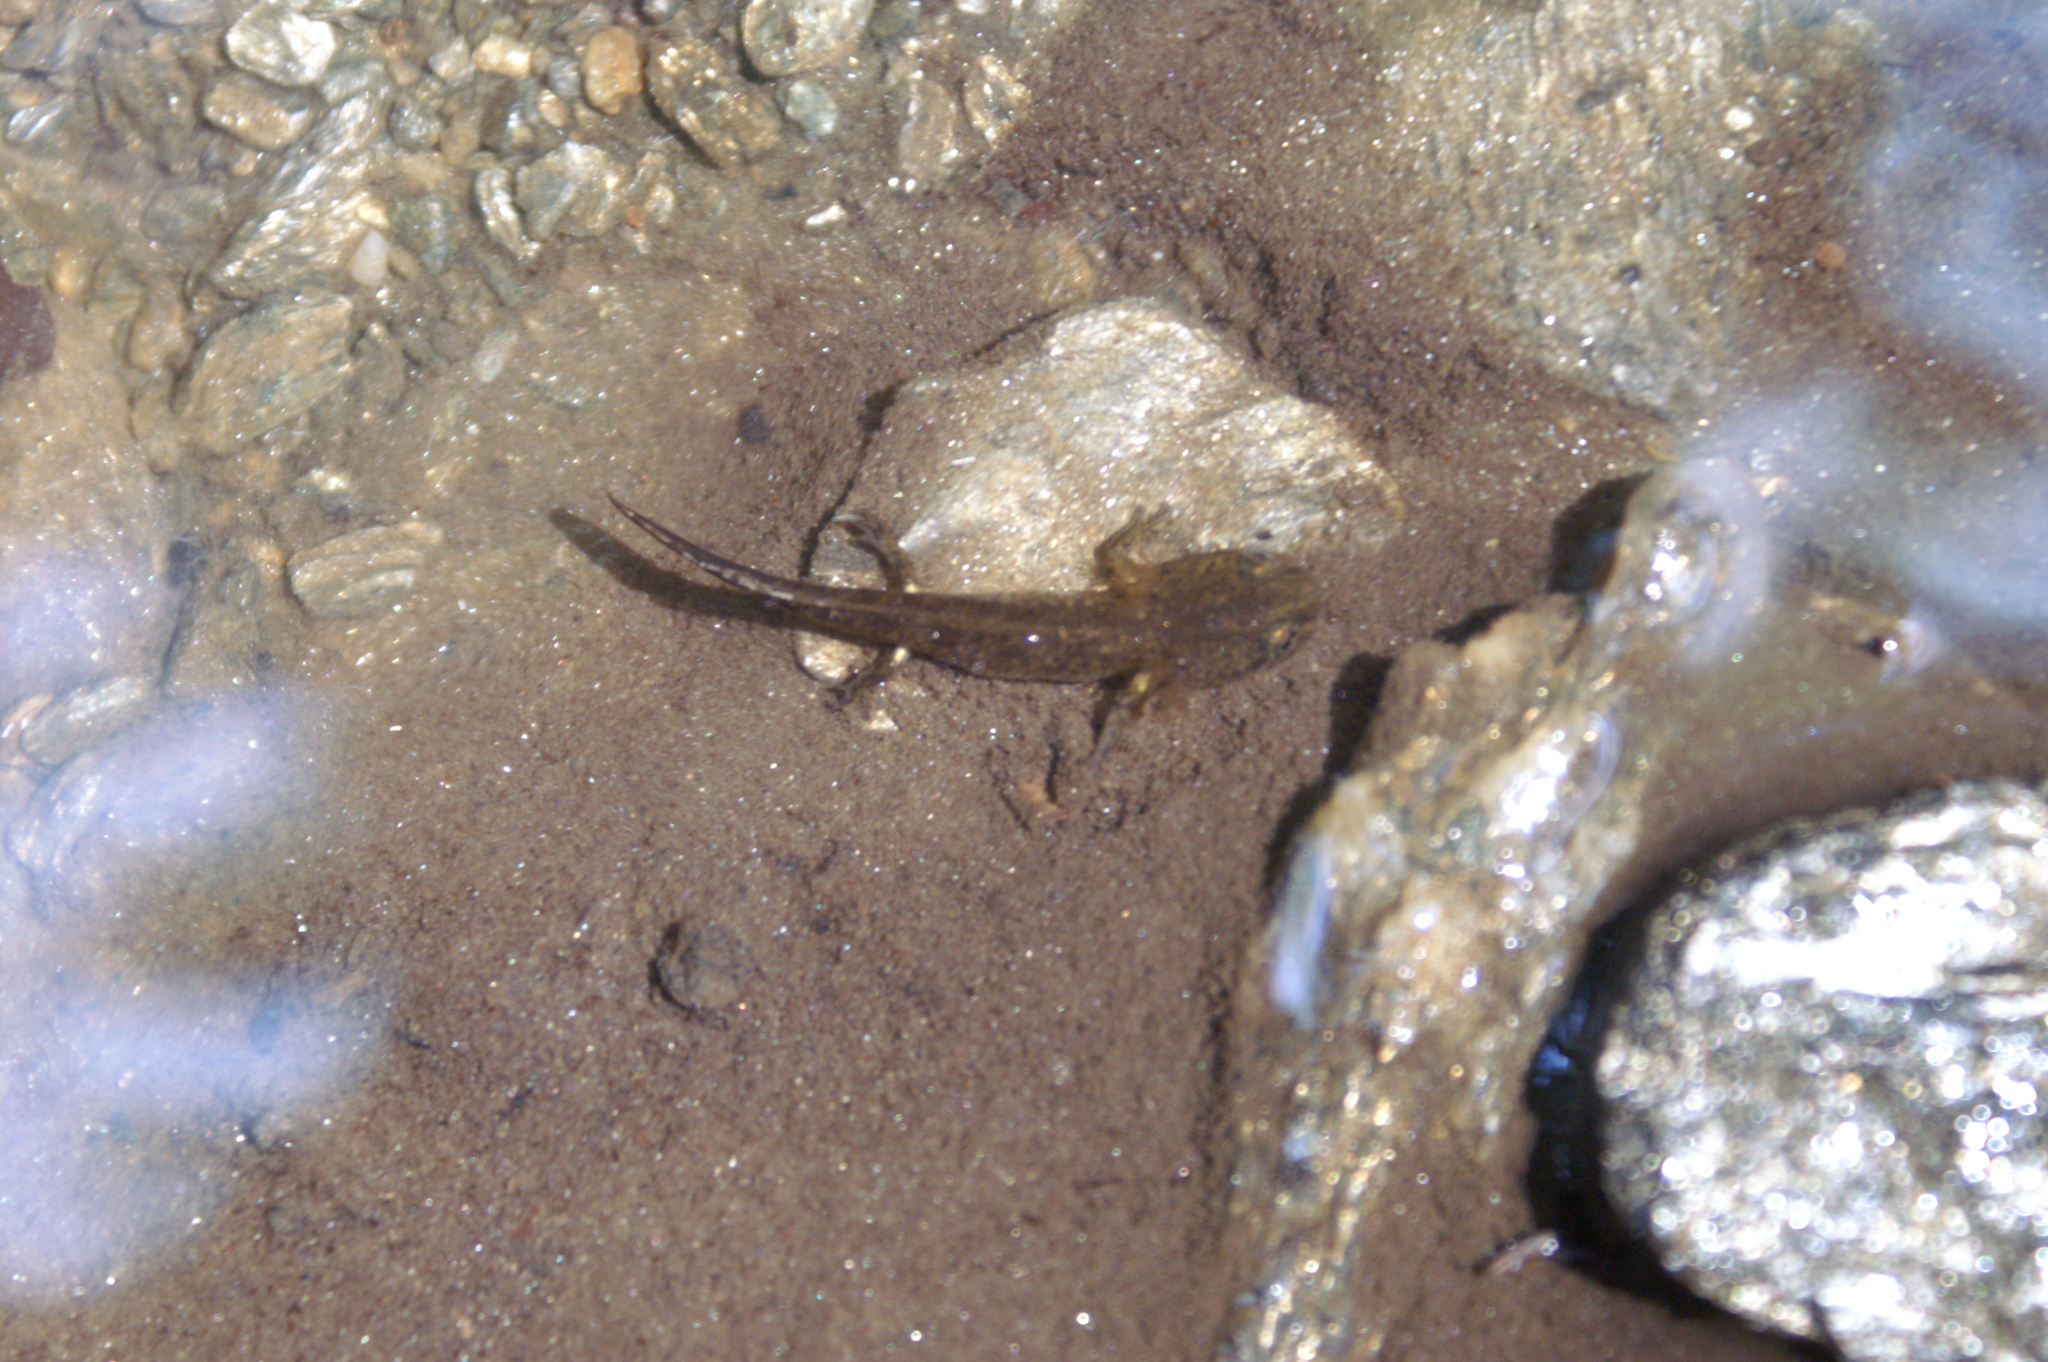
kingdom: Animalia
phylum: Chordata
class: Amphibia
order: Caudata
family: Salamandridae
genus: Salamandra
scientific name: Salamandra salamandra
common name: Fire salamander
